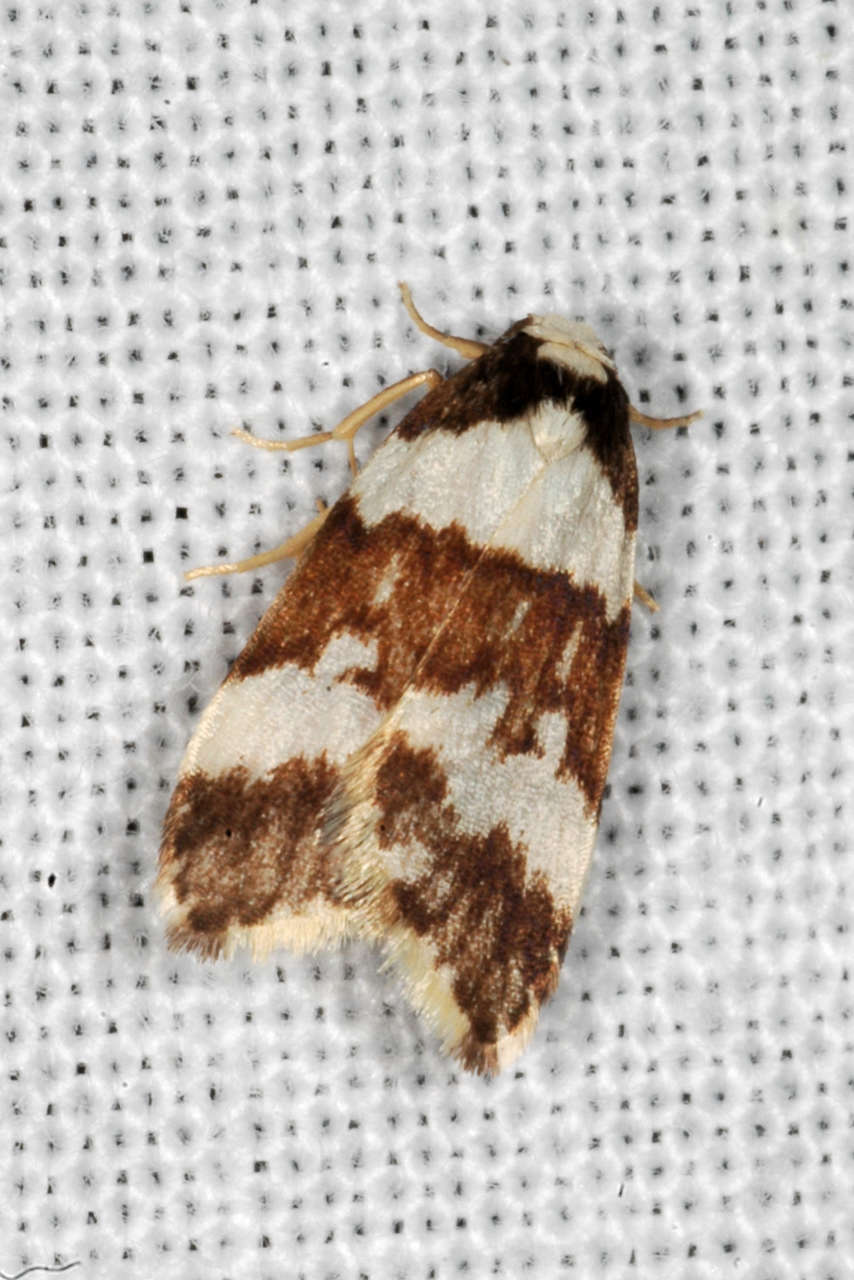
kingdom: Animalia
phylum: Arthropoda
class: Insecta
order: Lepidoptera
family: Erebidae
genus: Halone
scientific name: Halone sejuncta
